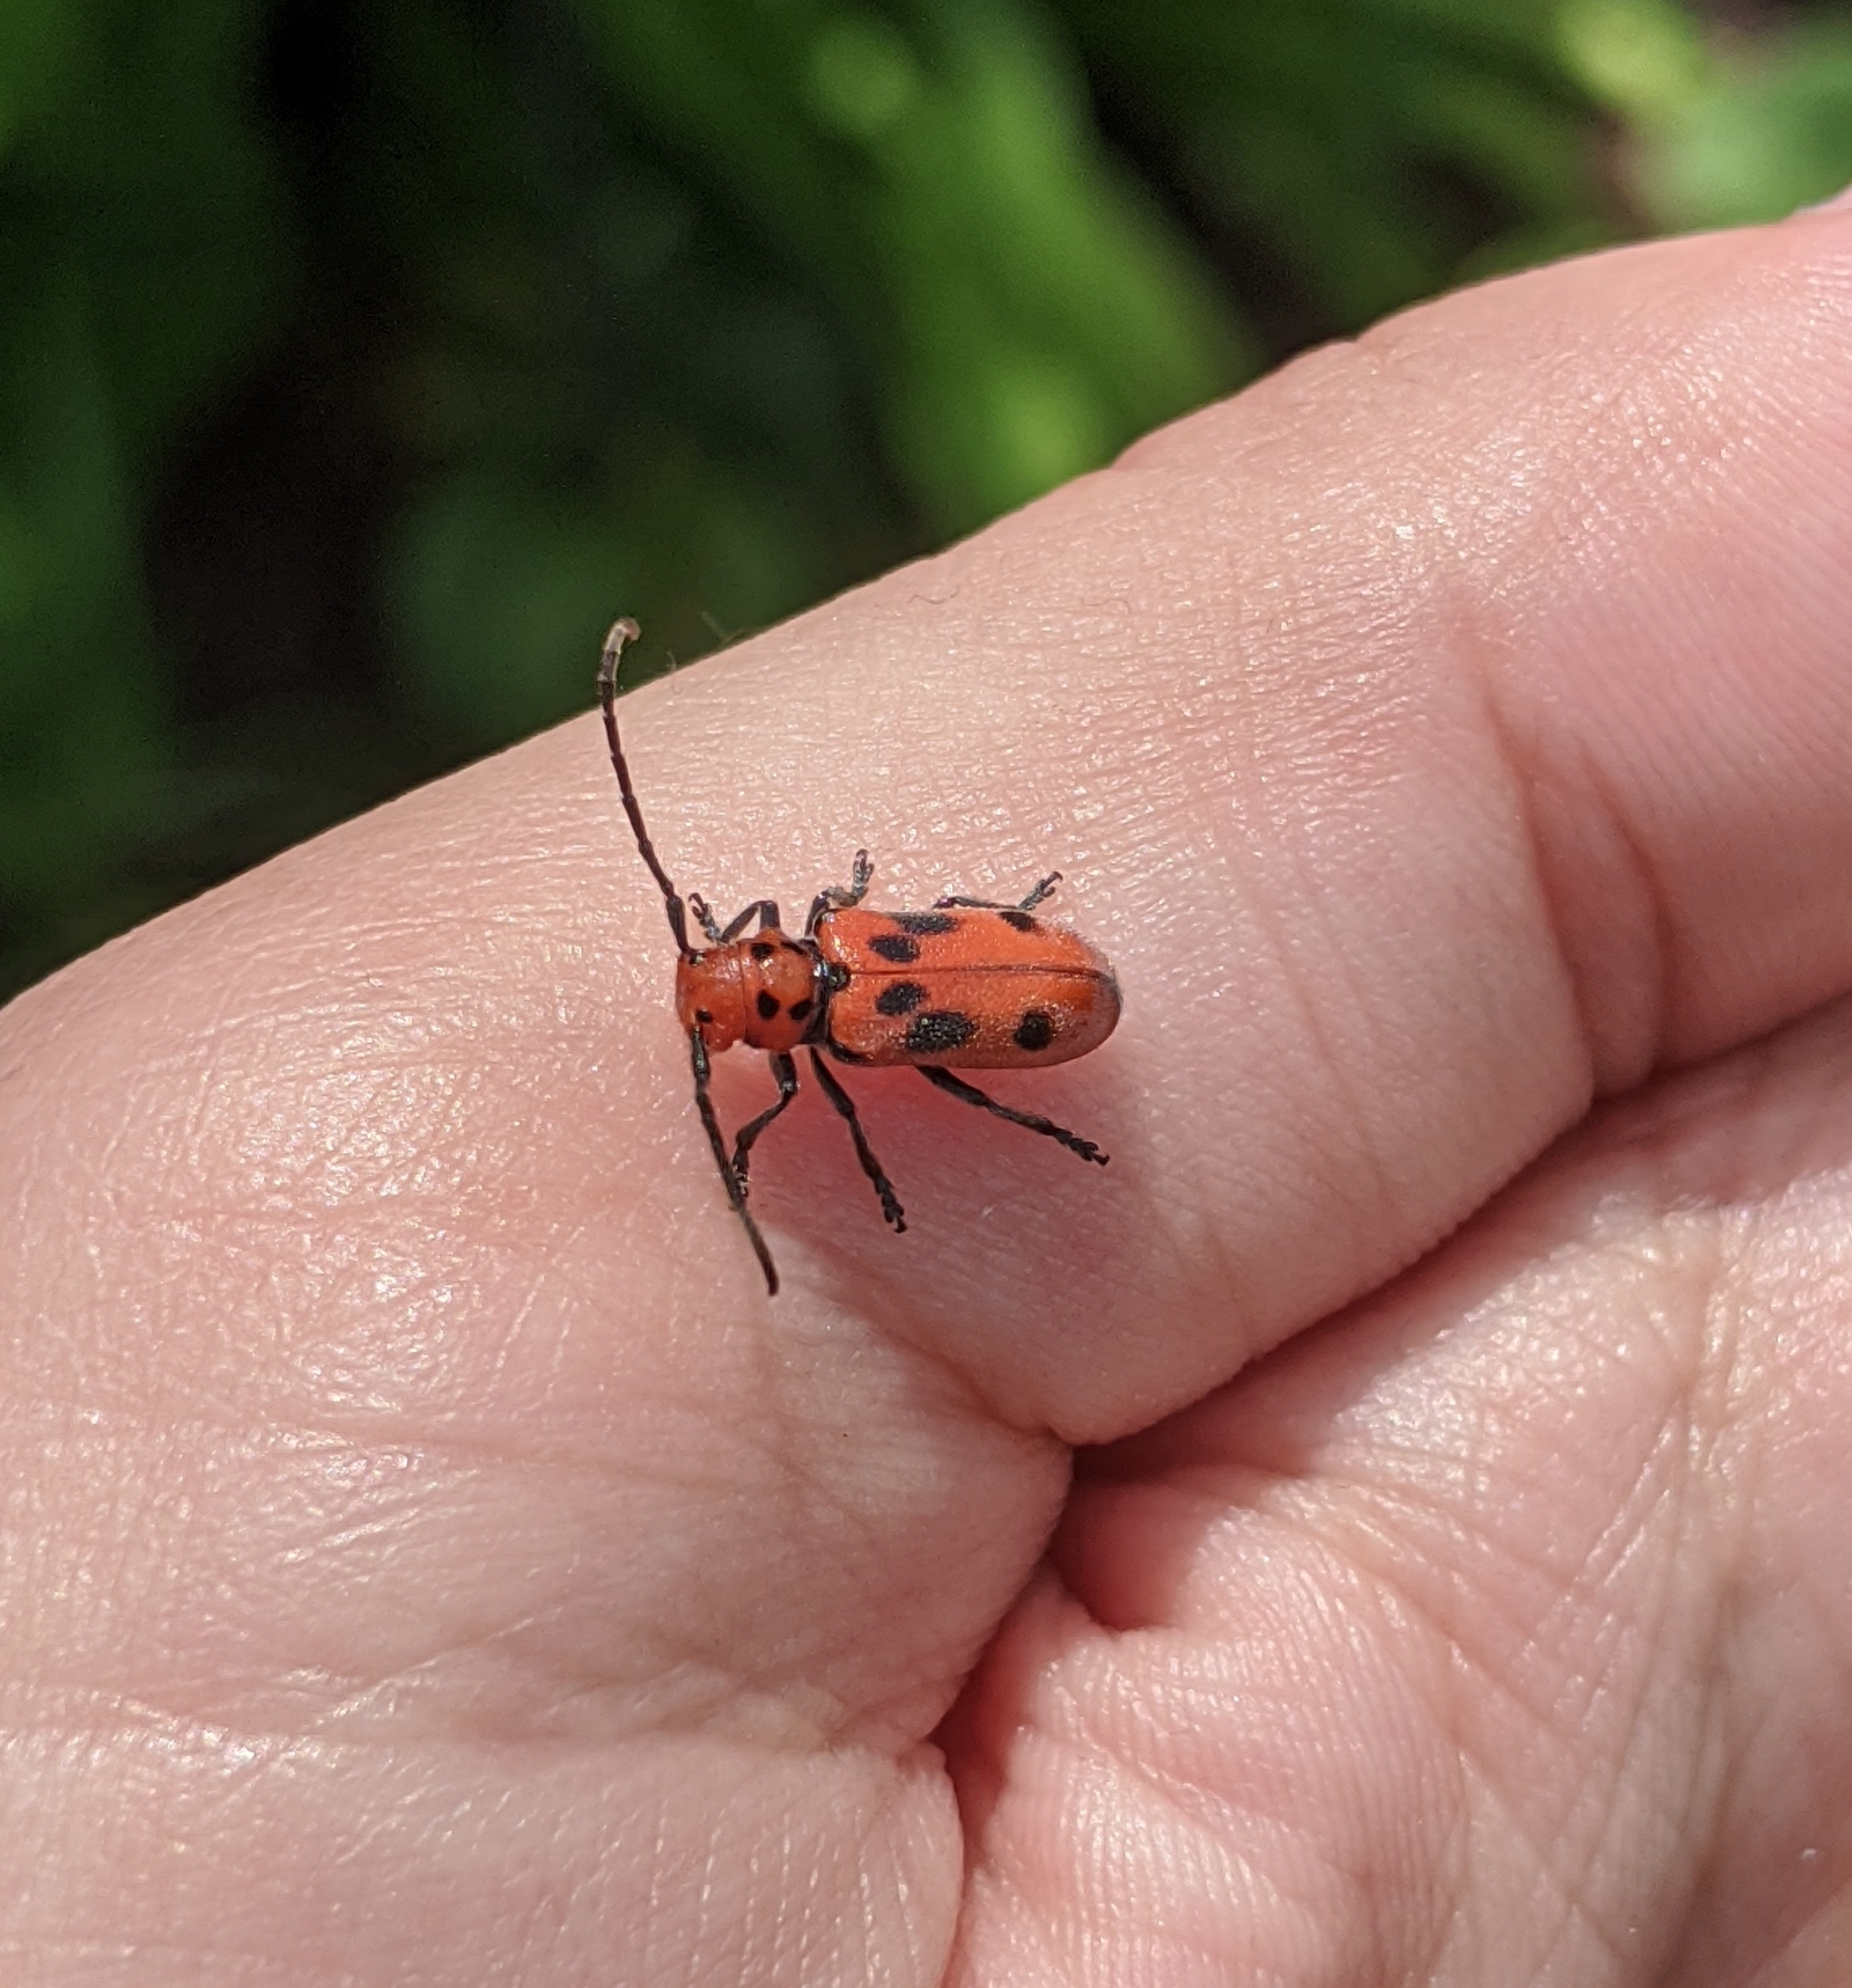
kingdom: Animalia
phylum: Arthropoda
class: Insecta
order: Coleoptera
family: Cerambycidae
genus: Tetraopes
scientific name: Tetraopes tetrophthalmus
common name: Red milkweed beetle
